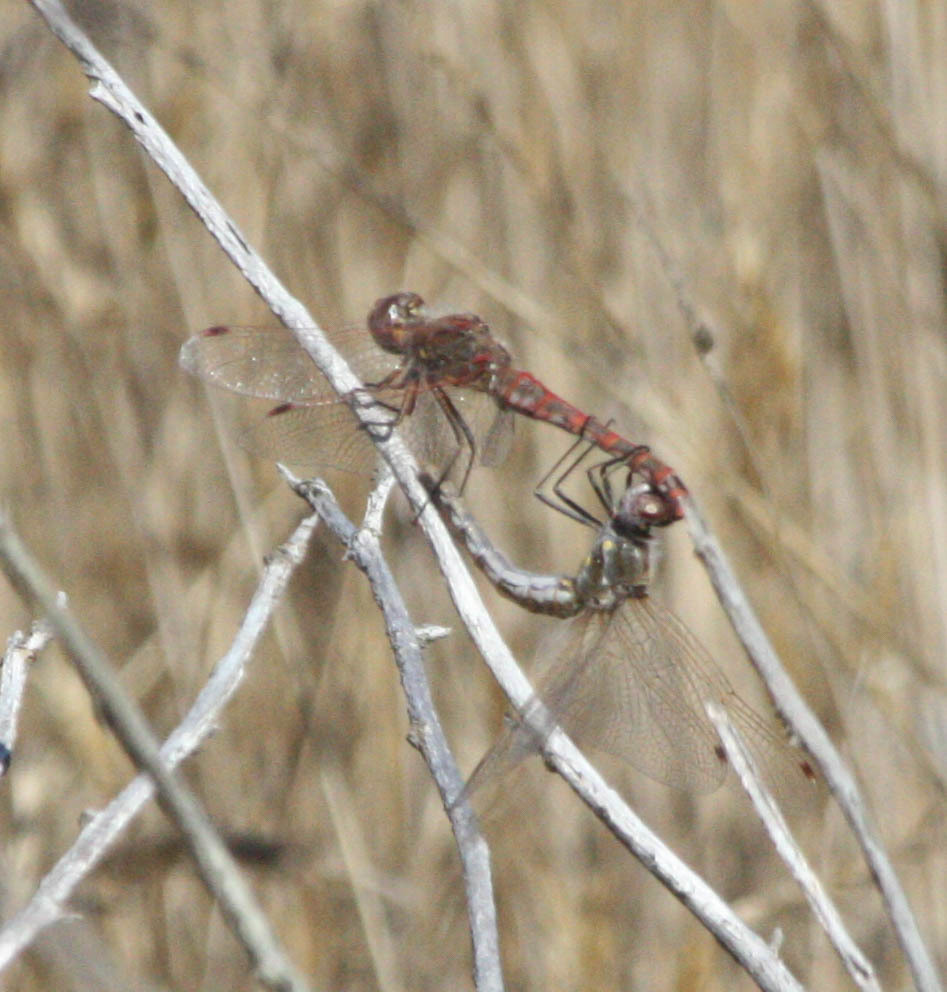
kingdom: Animalia
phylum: Arthropoda
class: Insecta
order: Odonata
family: Libellulidae
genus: Sympetrum
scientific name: Sympetrum corruptum
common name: Variegated meadowhawk
